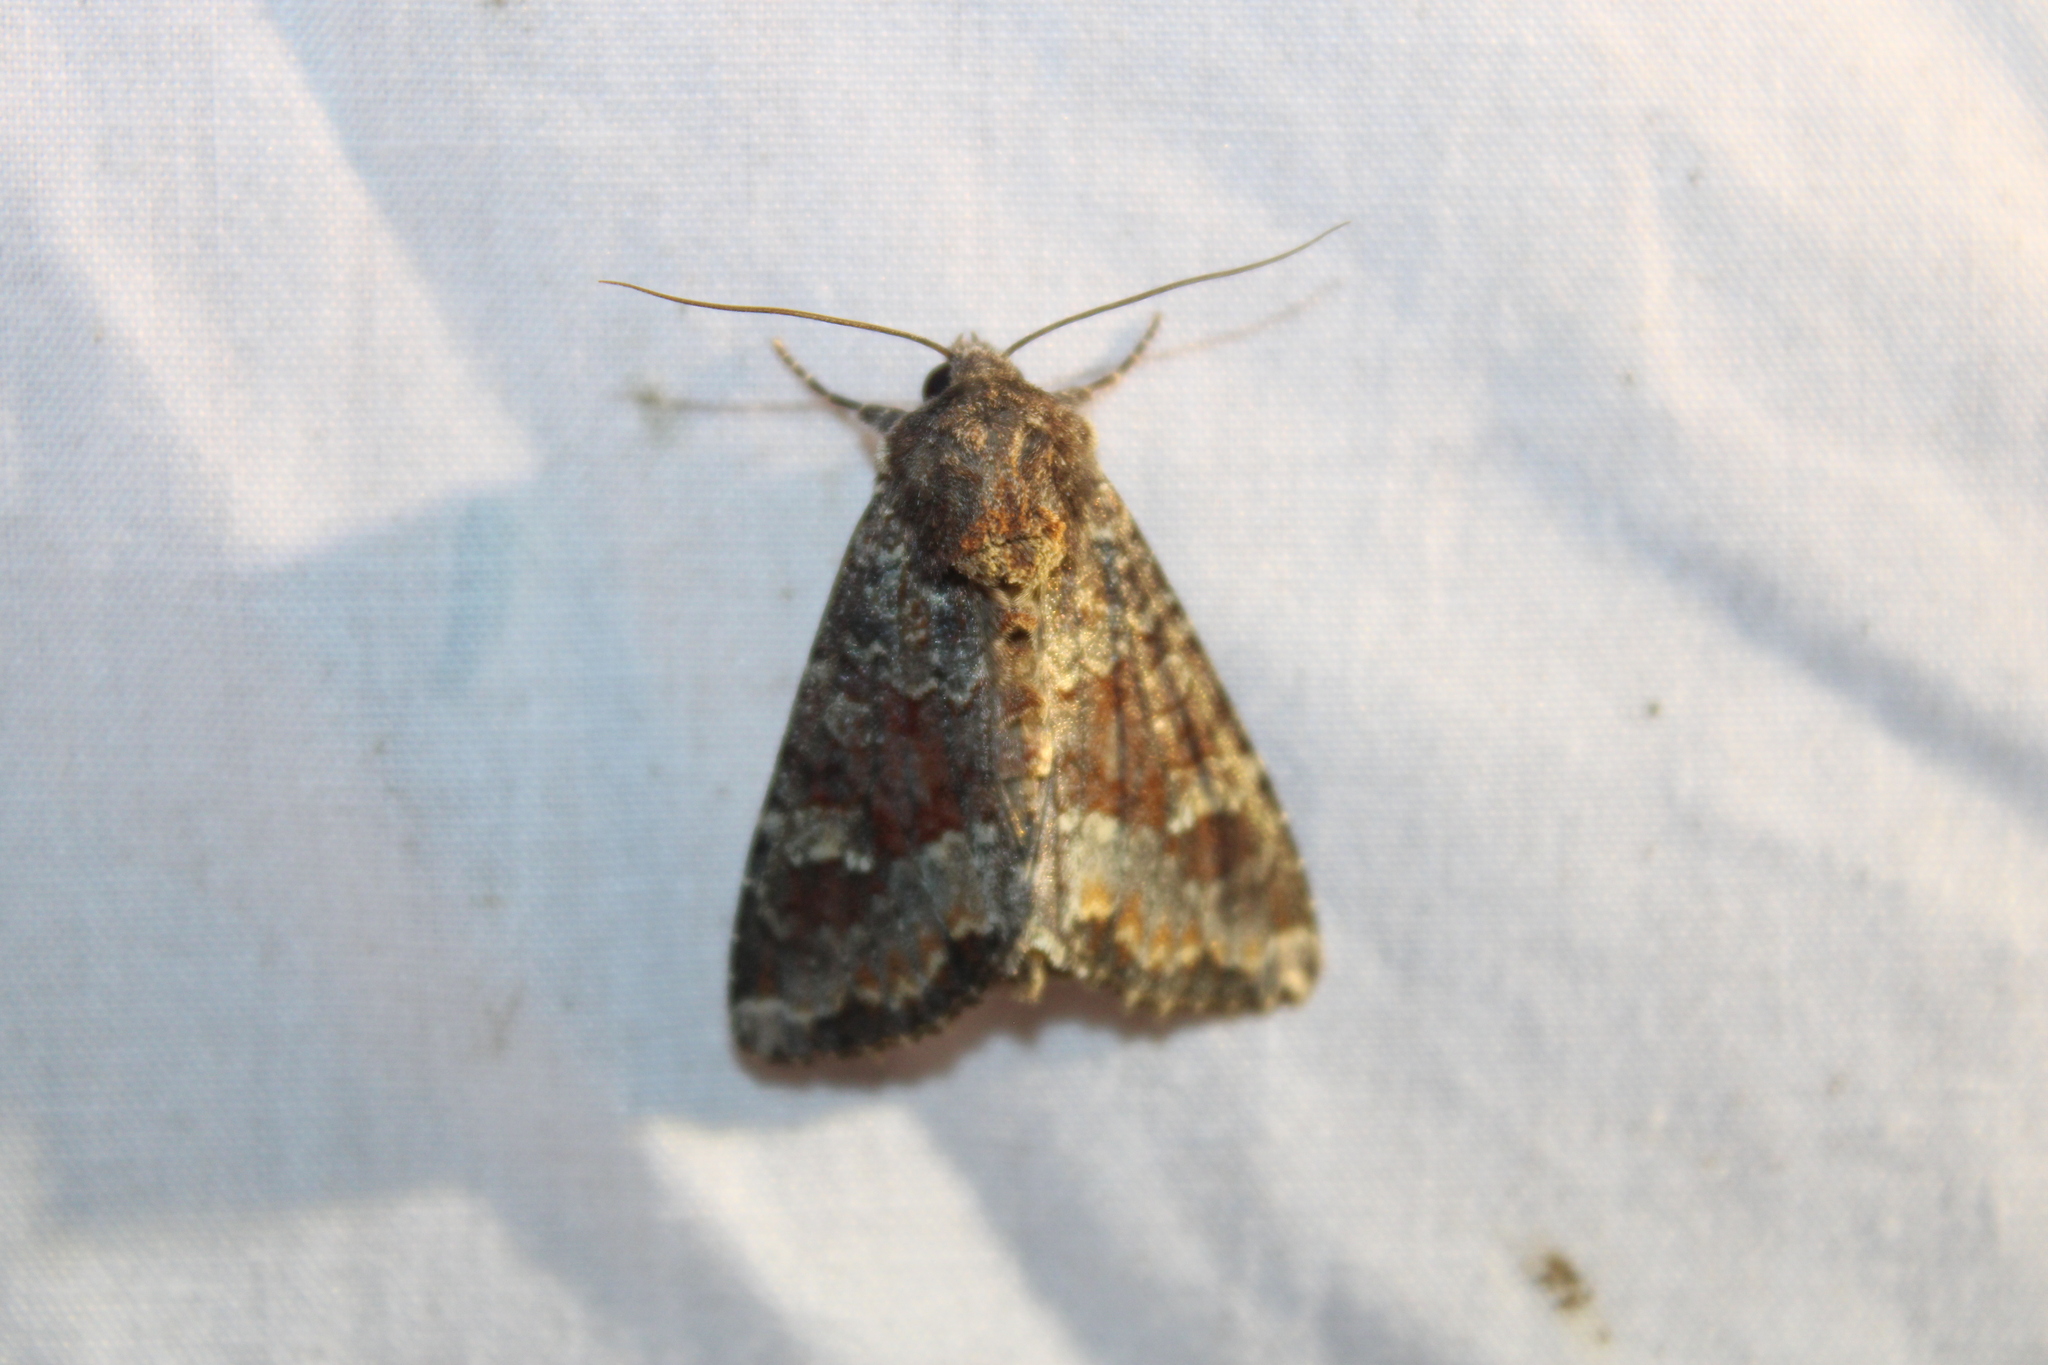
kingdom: Animalia
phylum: Arthropoda
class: Insecta
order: Lepidoptera
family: Noctuidae
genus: Apamea
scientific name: Apamea amputatrix
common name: Yellow-headed cutworm moth
